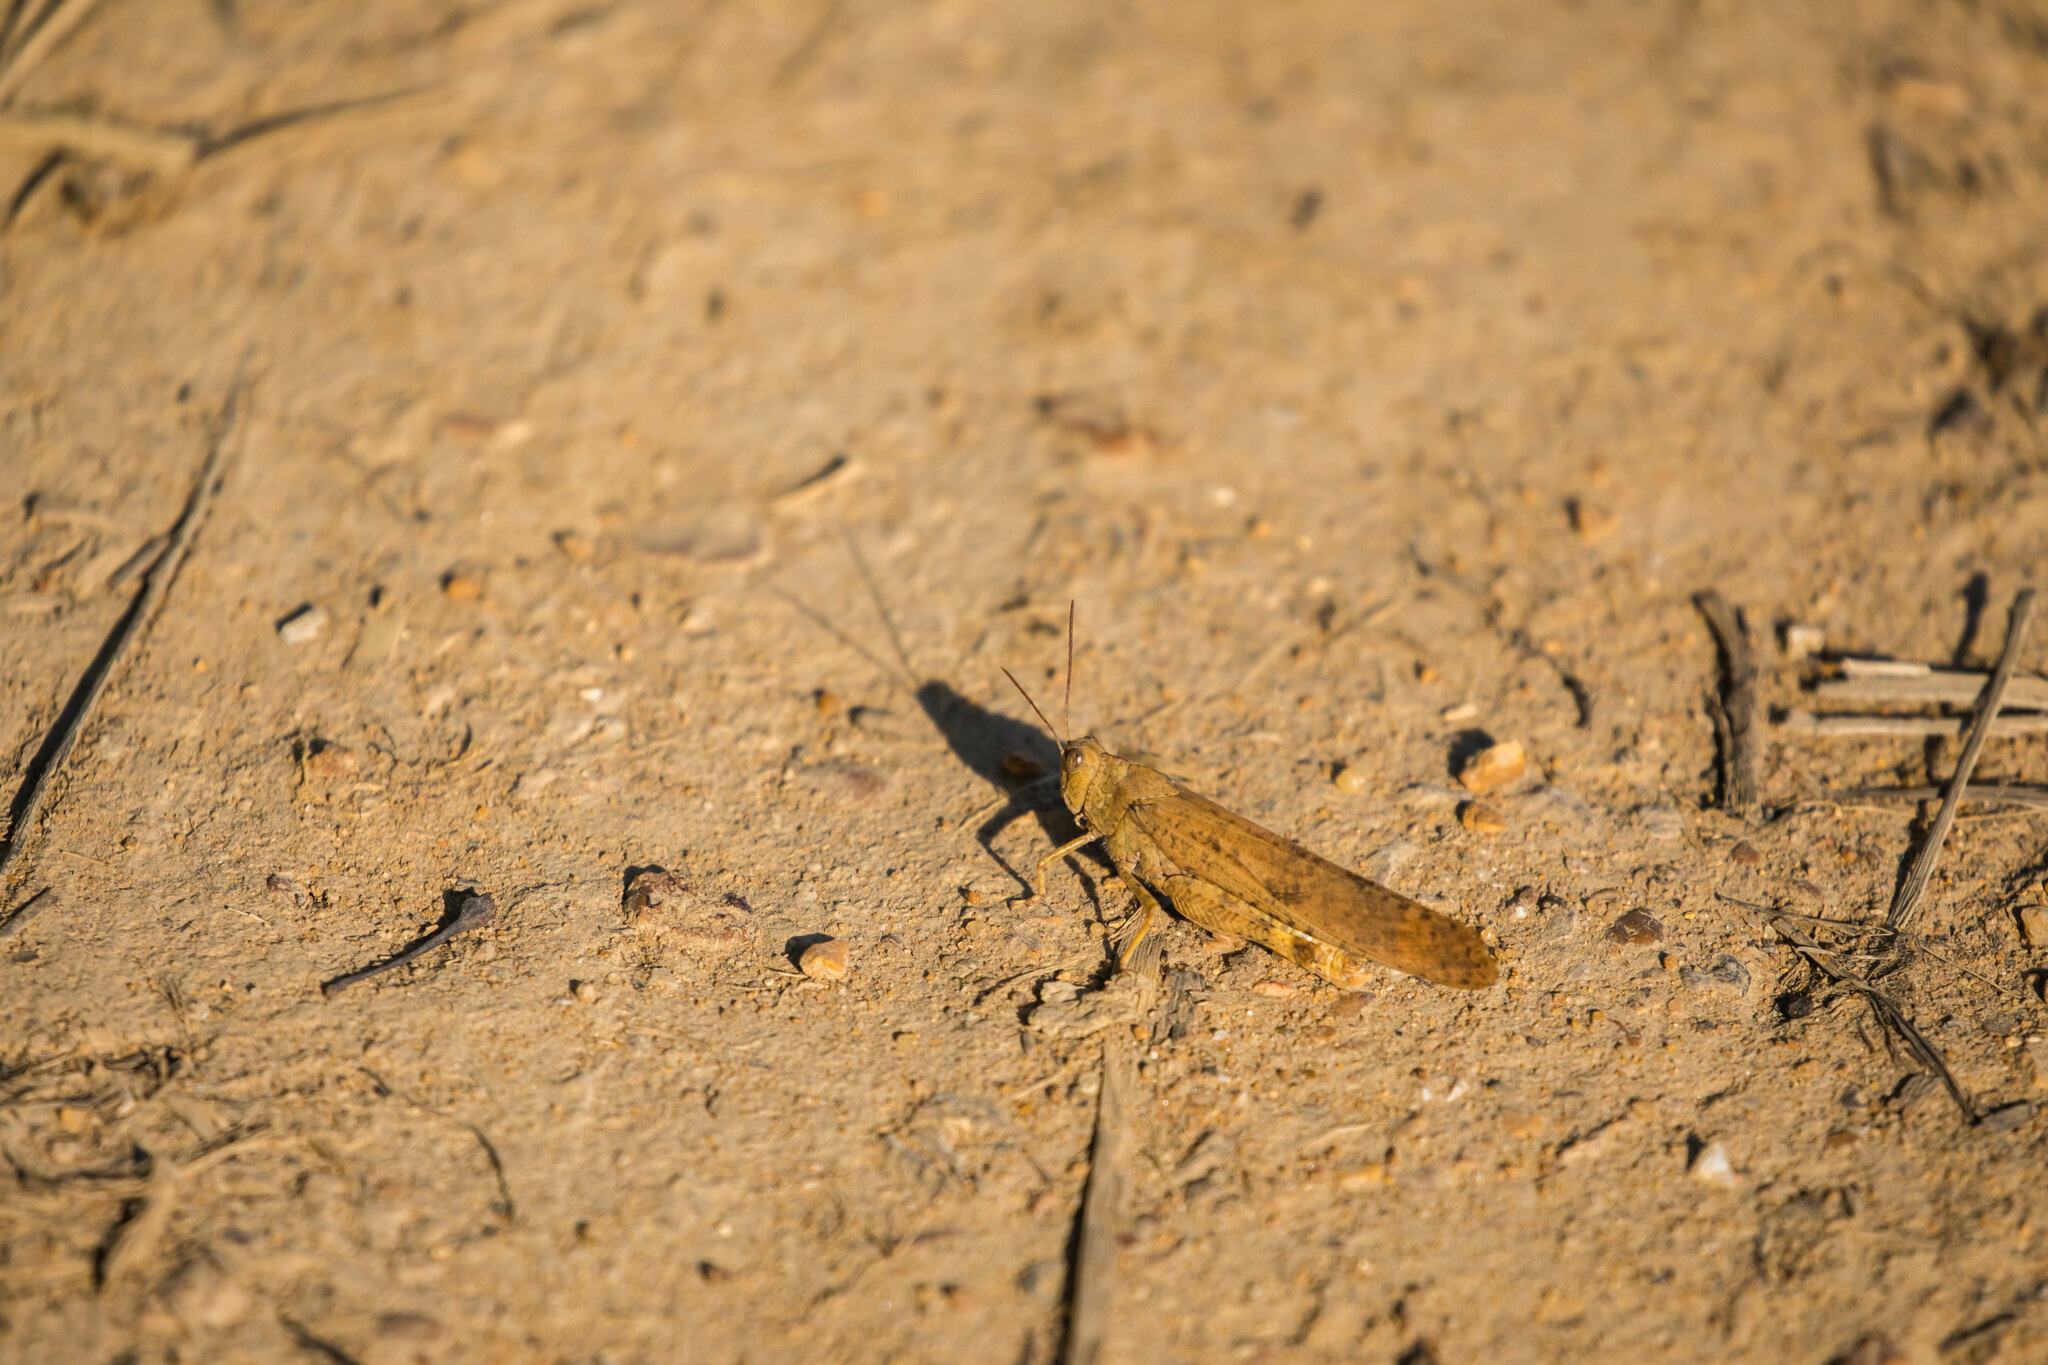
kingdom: Animalia
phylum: Arthropoda
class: Insecta
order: Orthoptera
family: Acrididae
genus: Dissosteira
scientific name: Dissosteira carolina
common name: Carolina grasshopper
